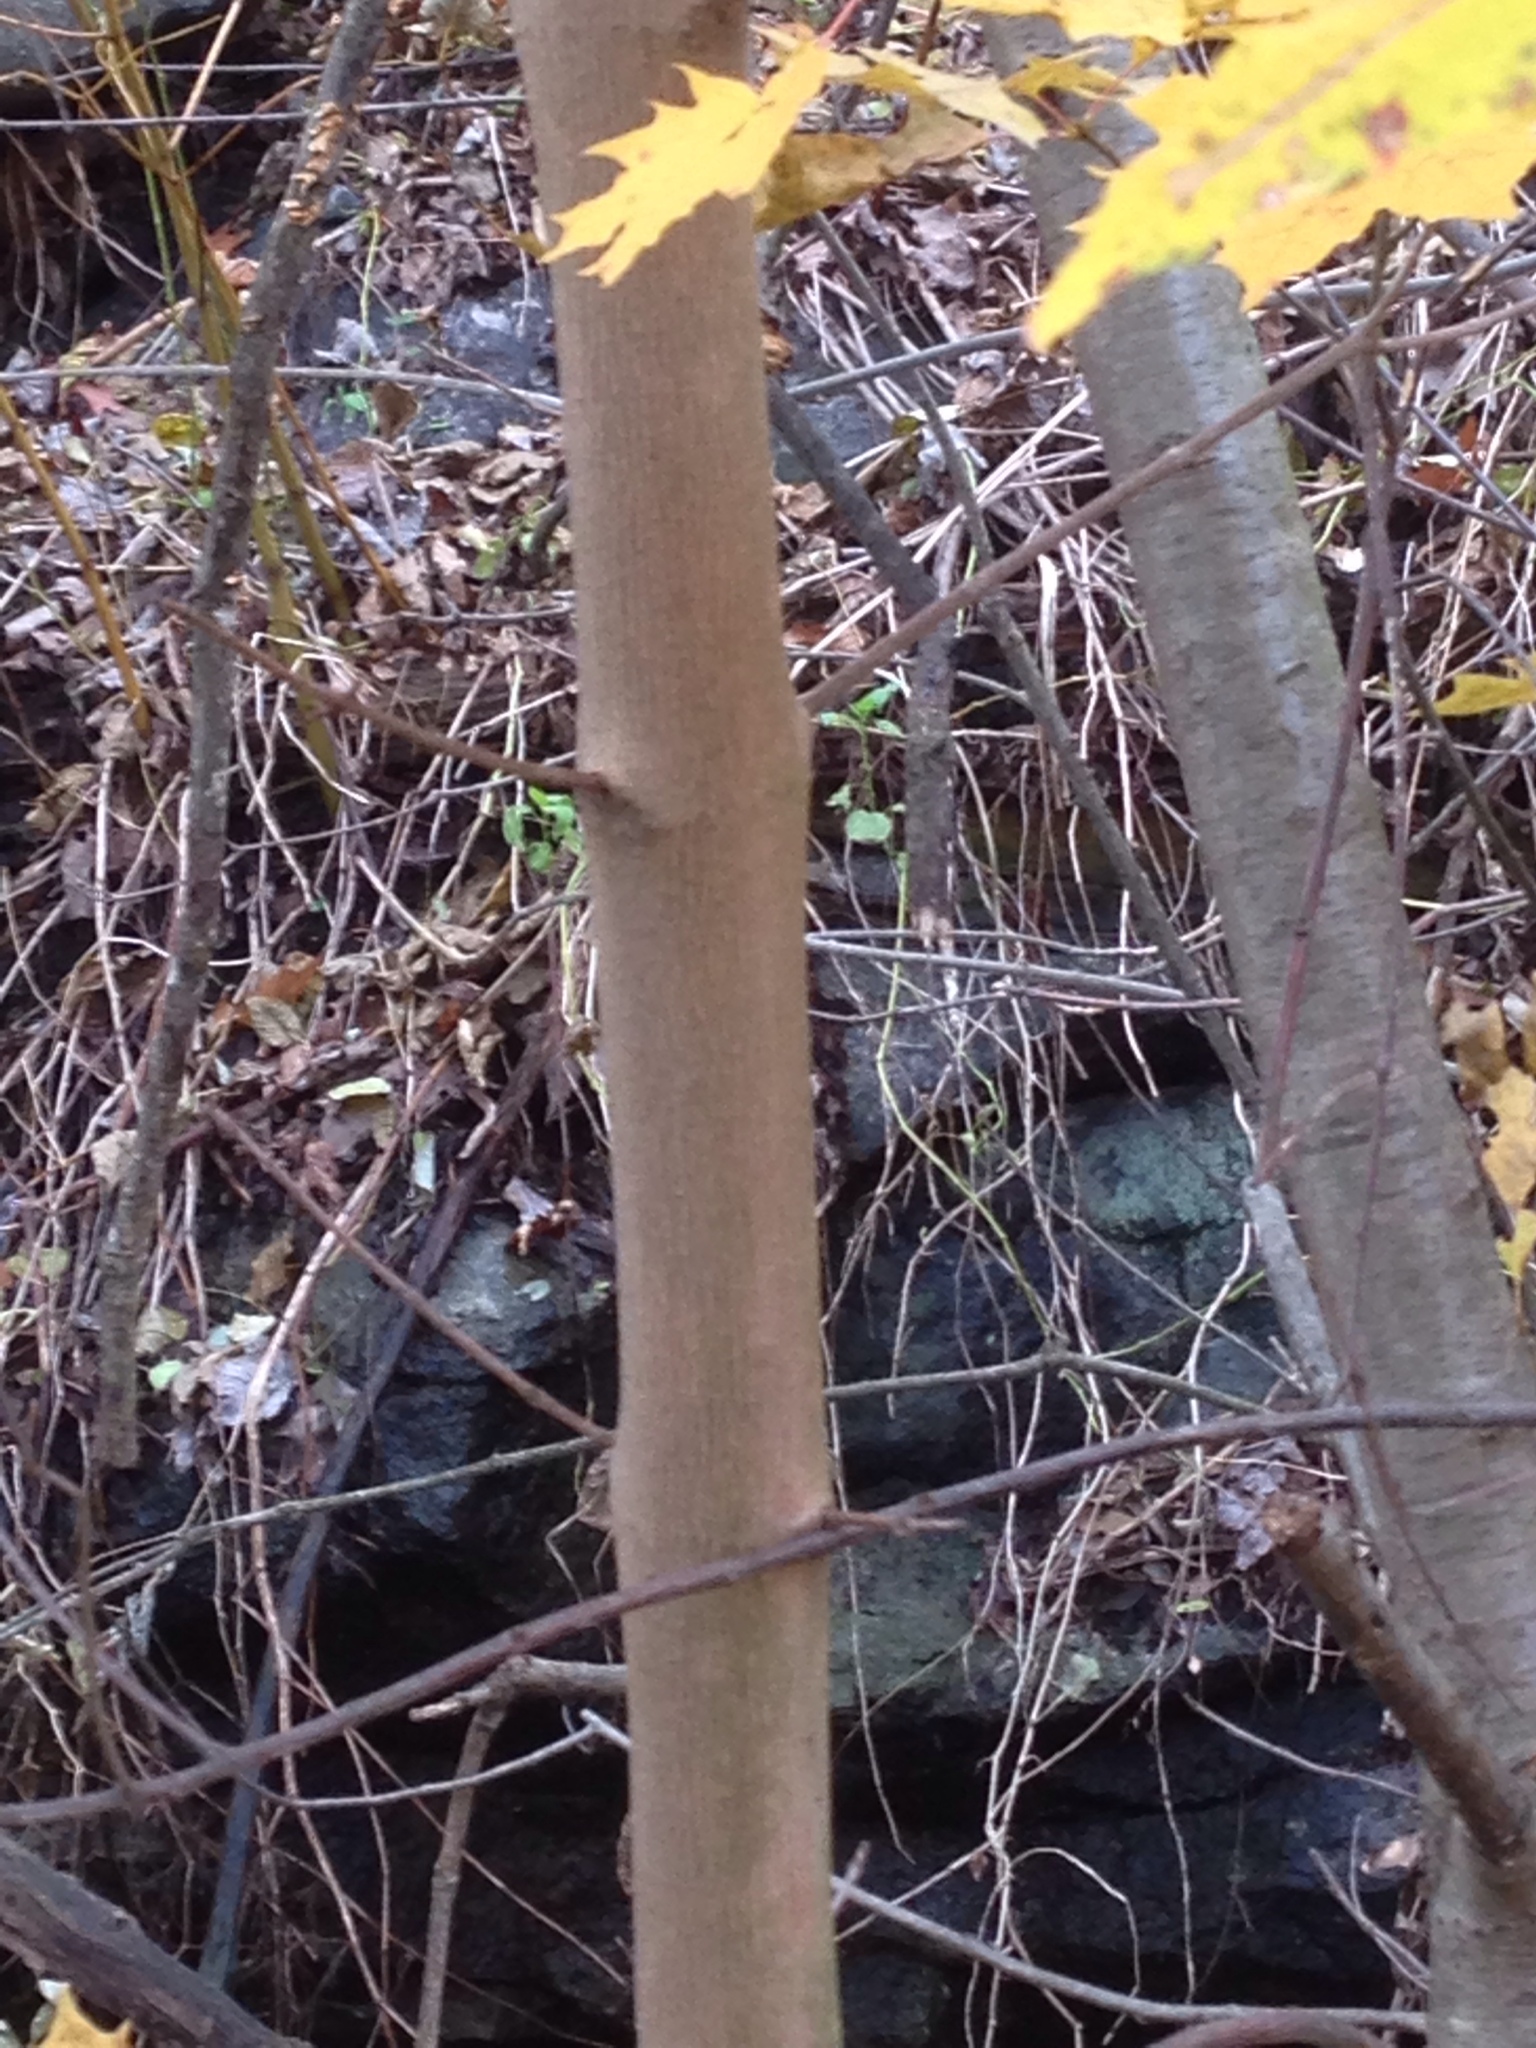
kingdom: Plantae
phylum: Tracheophyta
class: Magnoliopsida
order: Sapindales
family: Sapindaceae
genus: Acer
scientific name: Acer platanoides
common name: Norway maple
